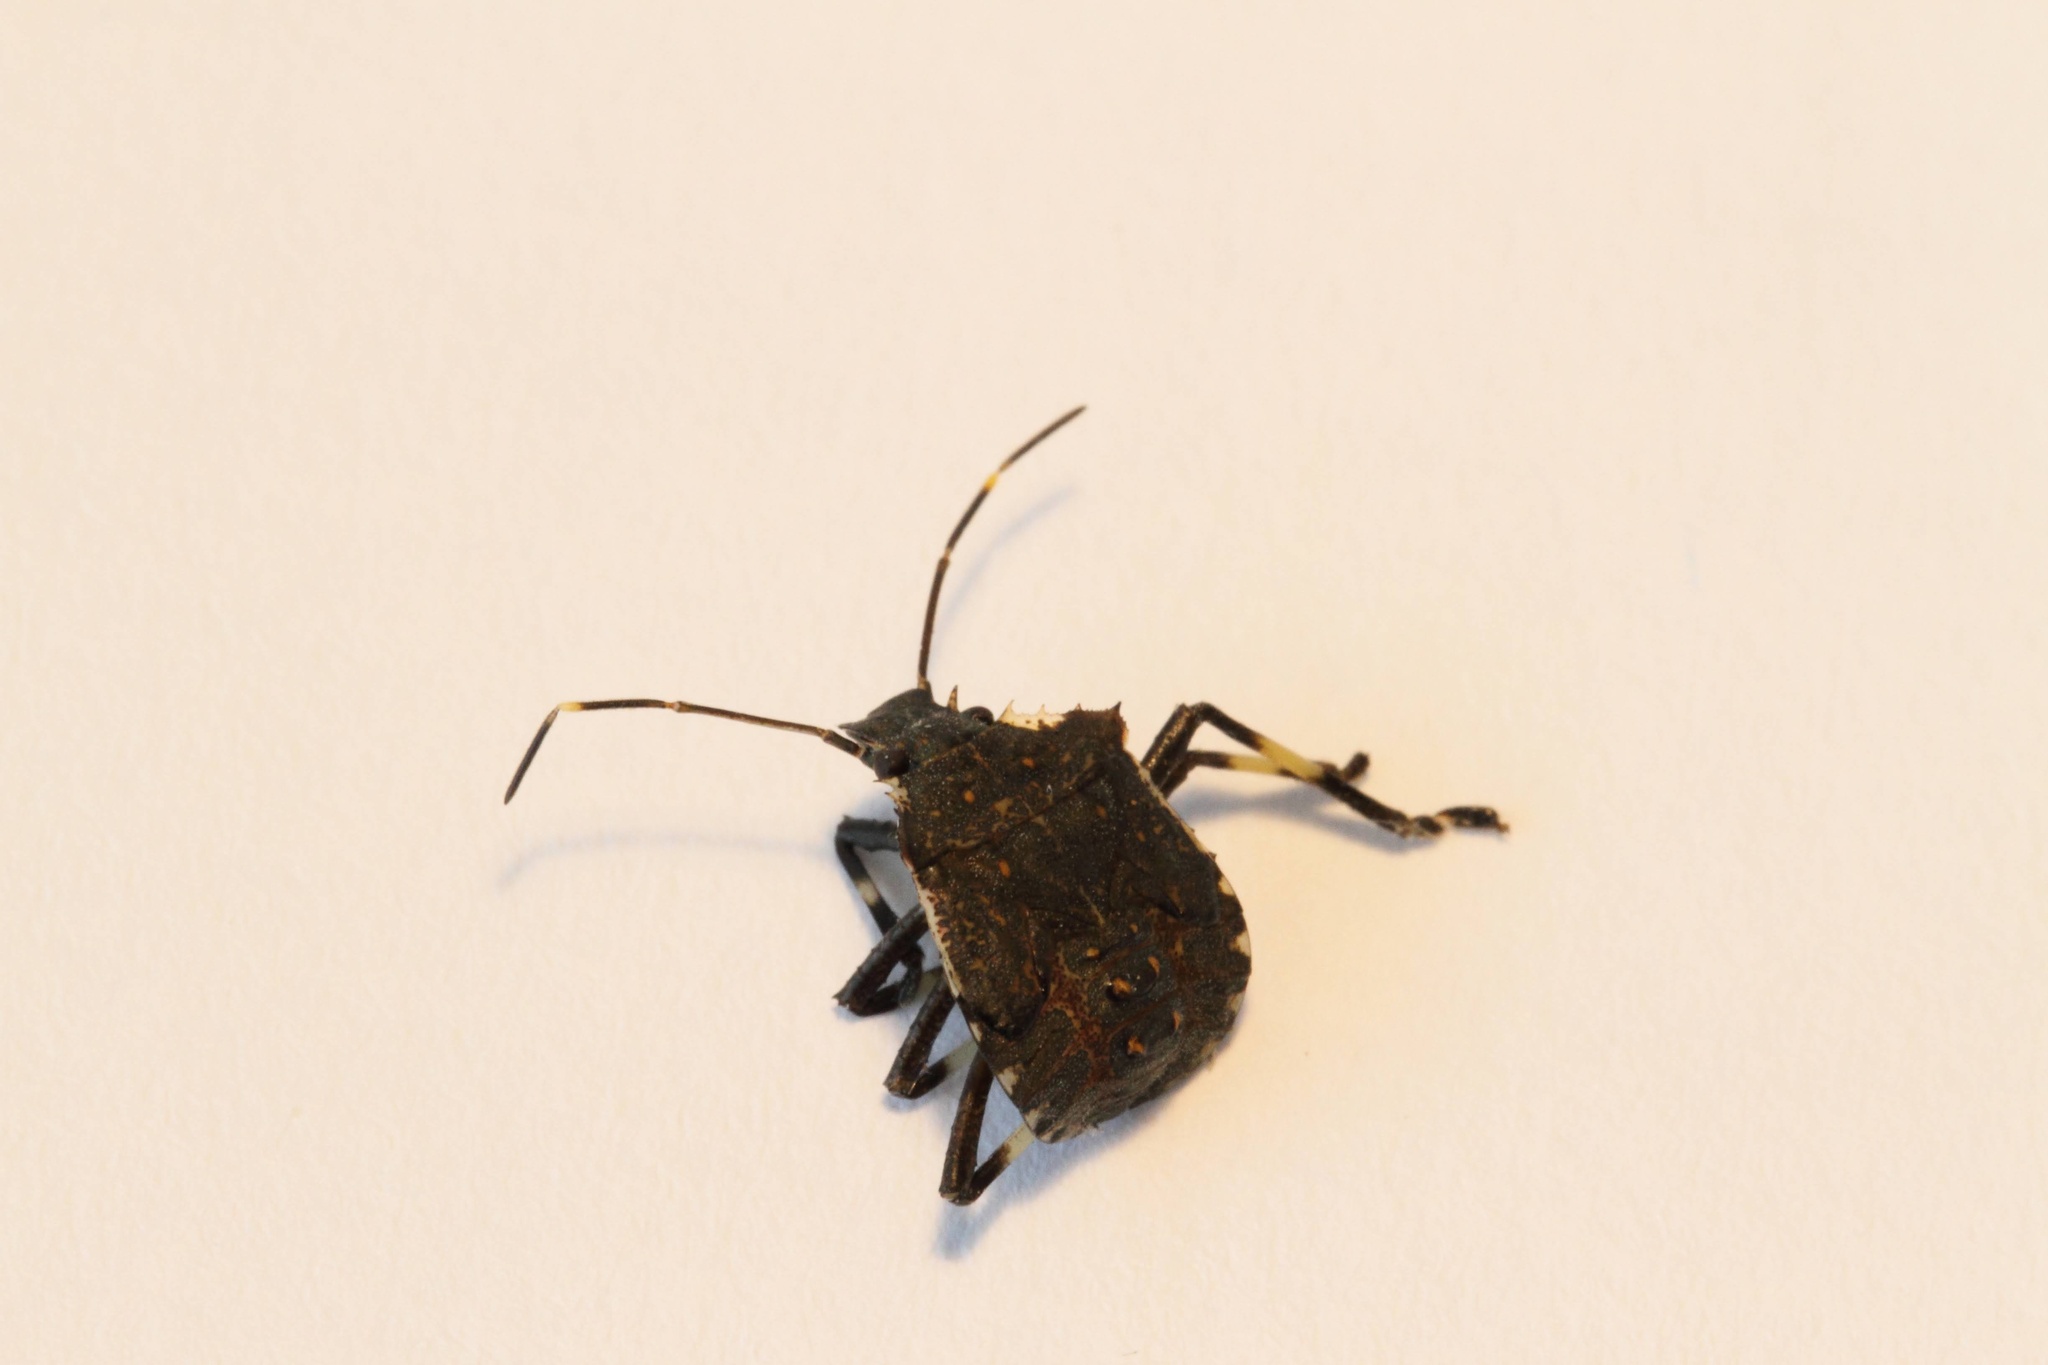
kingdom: Animalia
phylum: Arthropoda
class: Insecta
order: Hemiptera
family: Pentatomidae
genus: Halyomorpha
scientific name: Halyomorpha halys
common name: Brown marmorated stink bug
